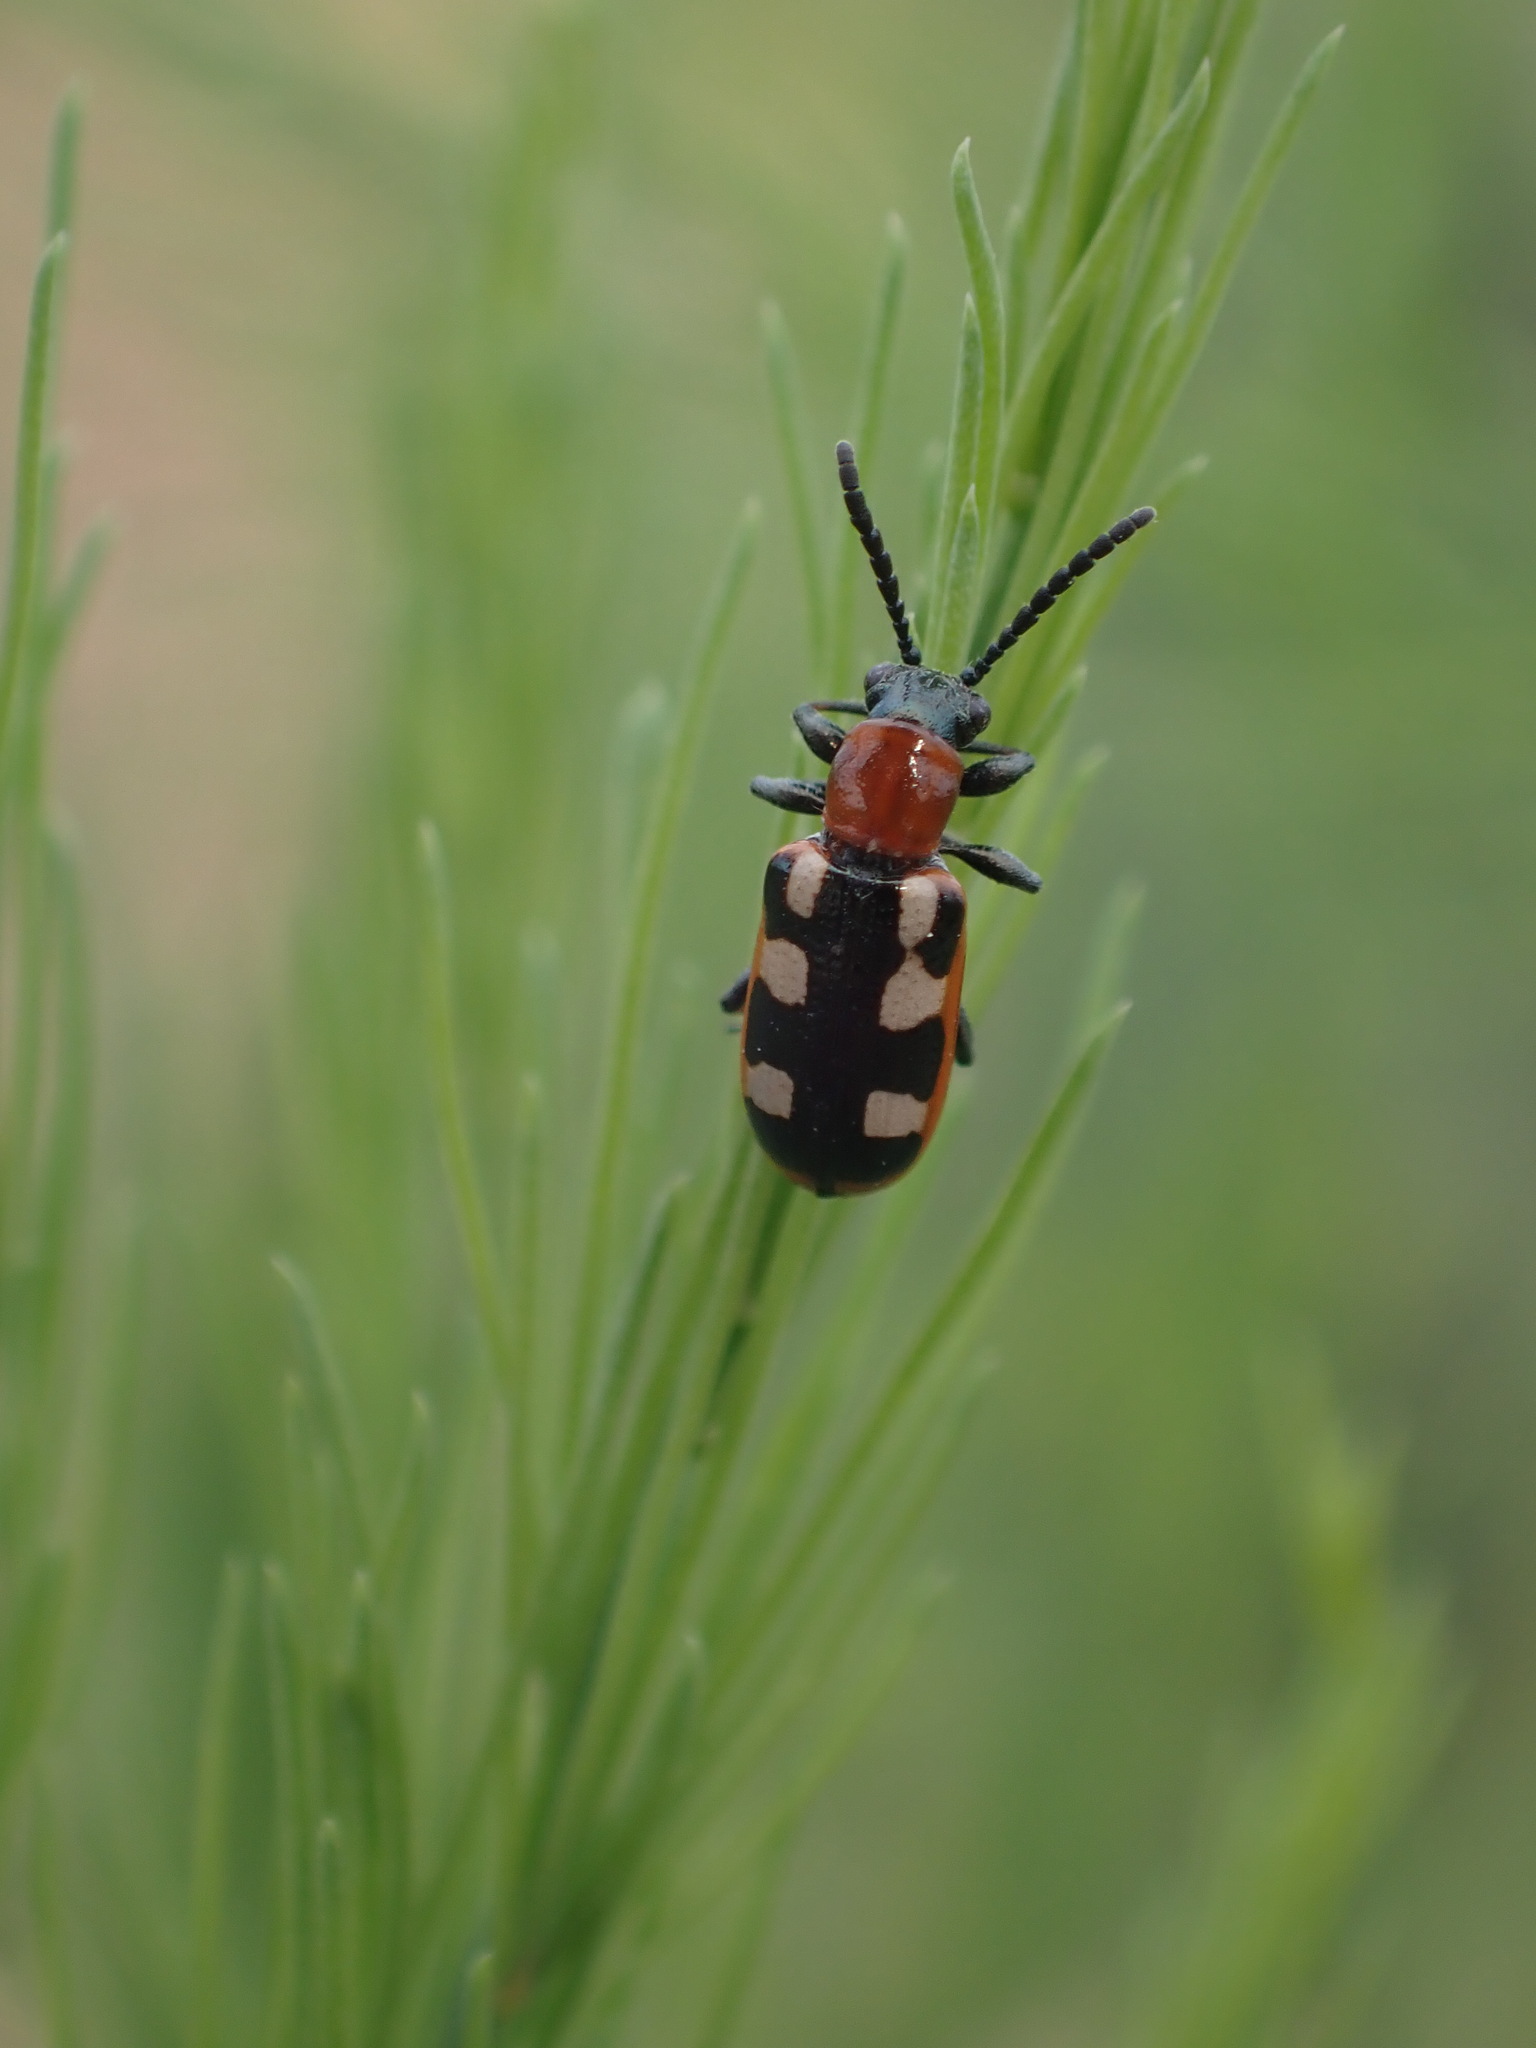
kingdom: Animalia
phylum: Arthropoda
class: Insecta
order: Coleoptera
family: Chrysomelidae
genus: Crioceris
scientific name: Crioceris asparagi
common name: Asparagus beetle
